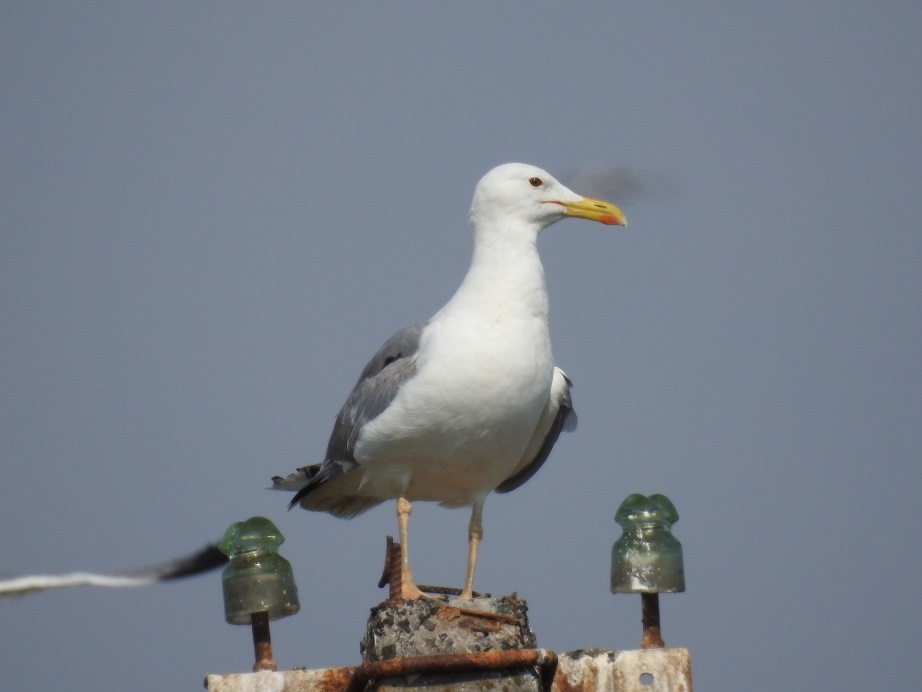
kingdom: Animalia
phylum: Chordata
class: Aves
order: Charadriiformes
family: Laridae
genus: Larus
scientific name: Larus cachinnans
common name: Caspian gull
